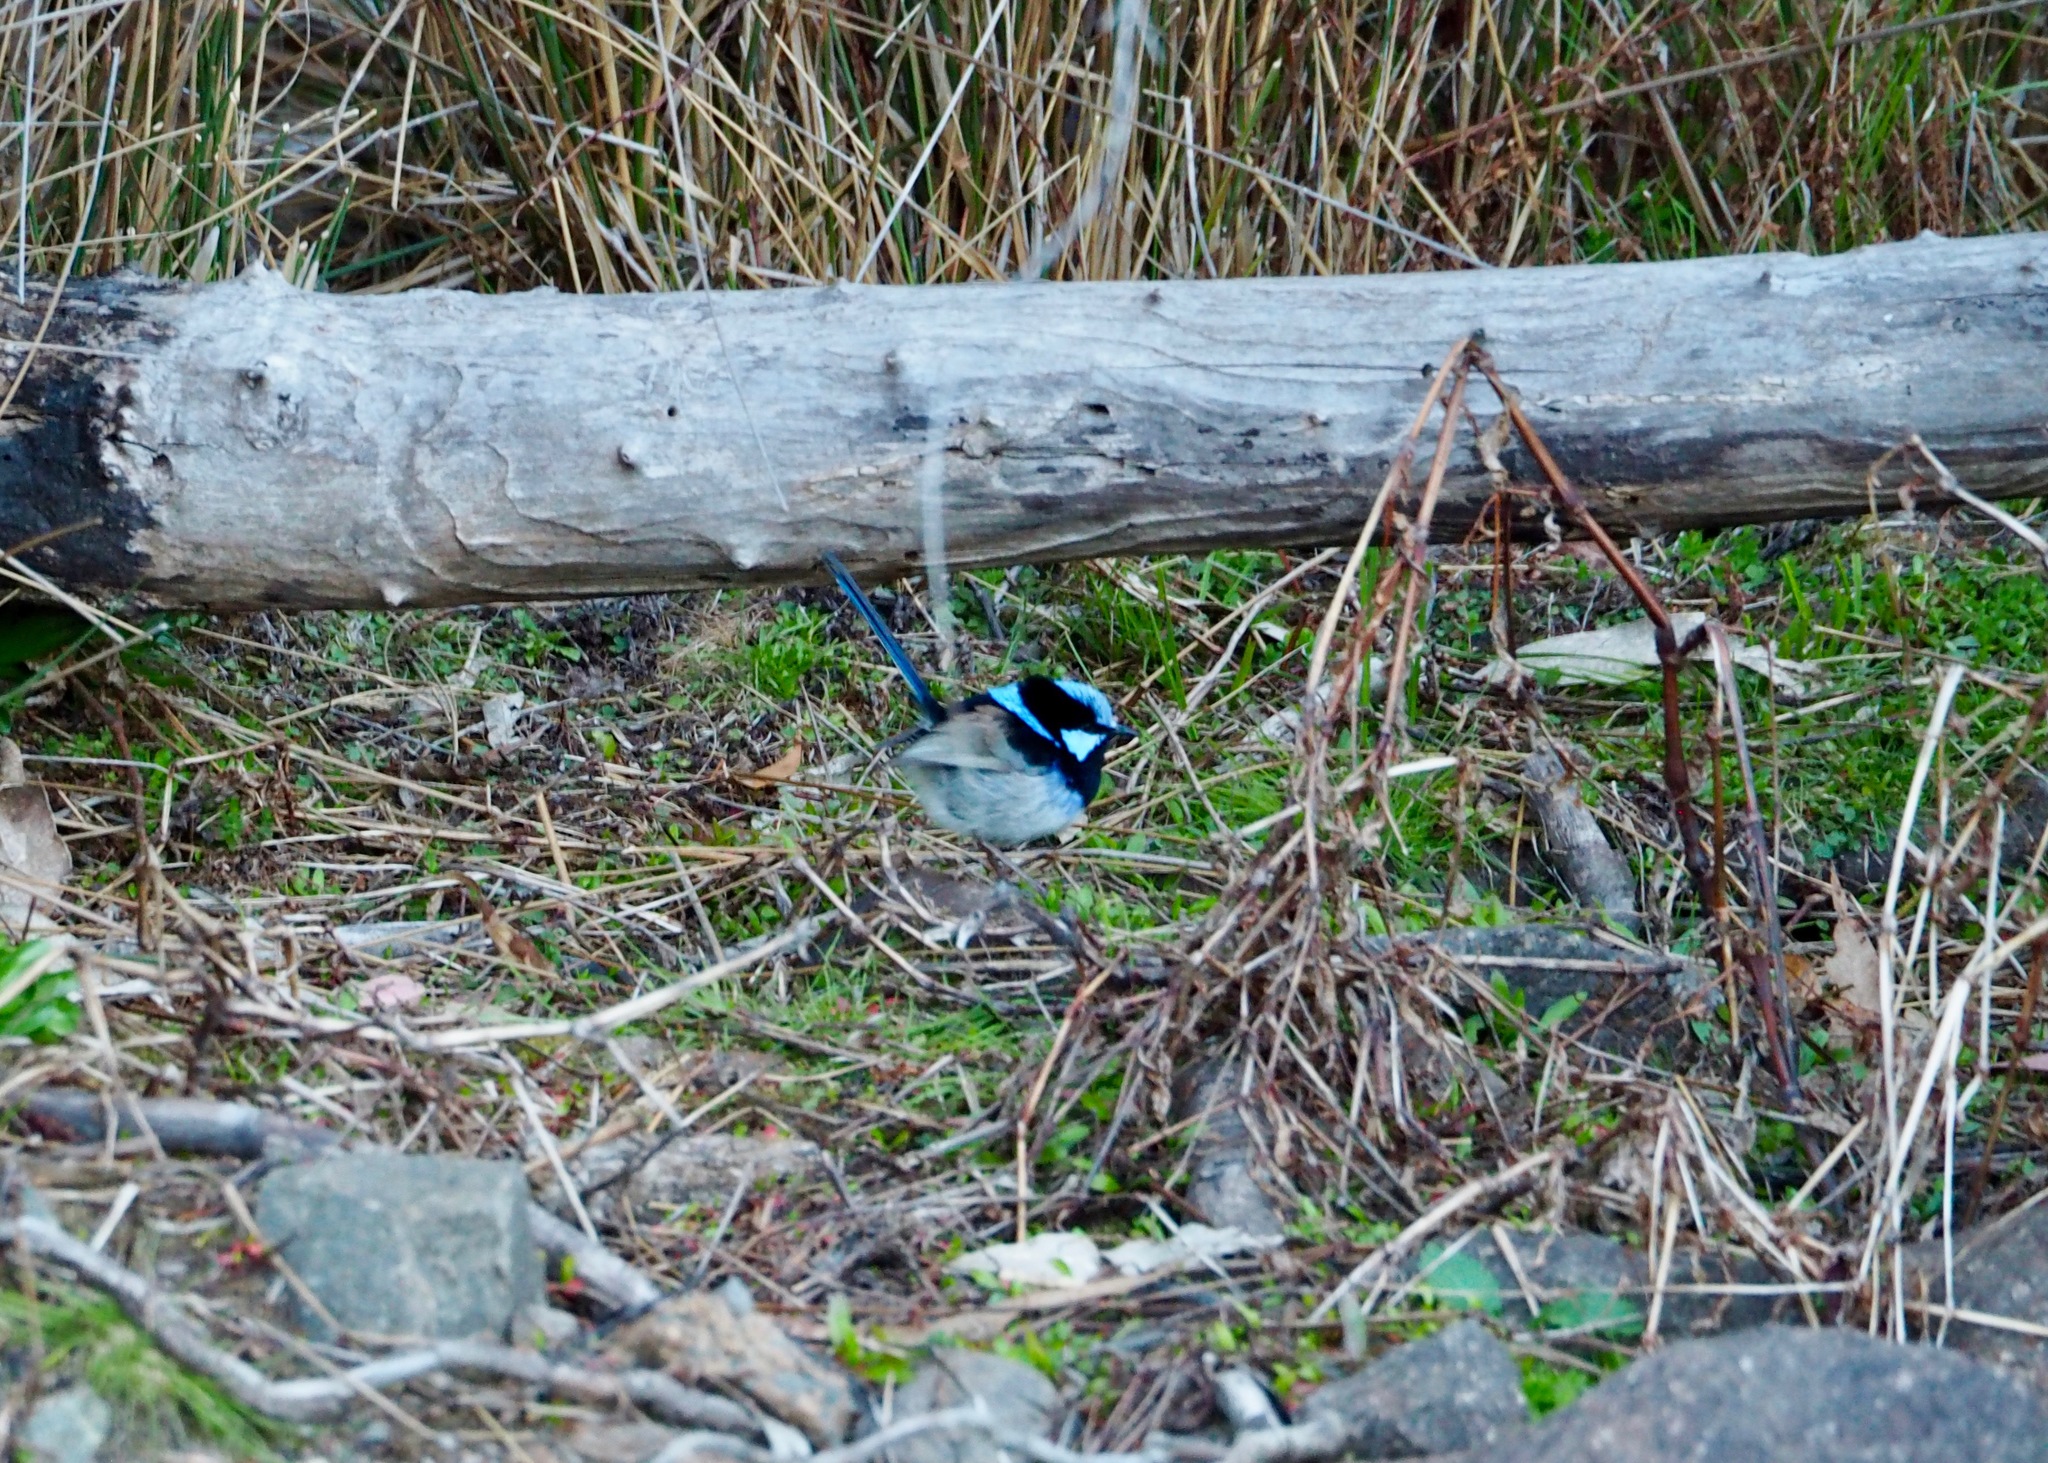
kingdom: Animalia
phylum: Chordata
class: Aves
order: Passeriformes
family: Maluridae
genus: Malurus
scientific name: Malurus cyaneus
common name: Superb fairywren
